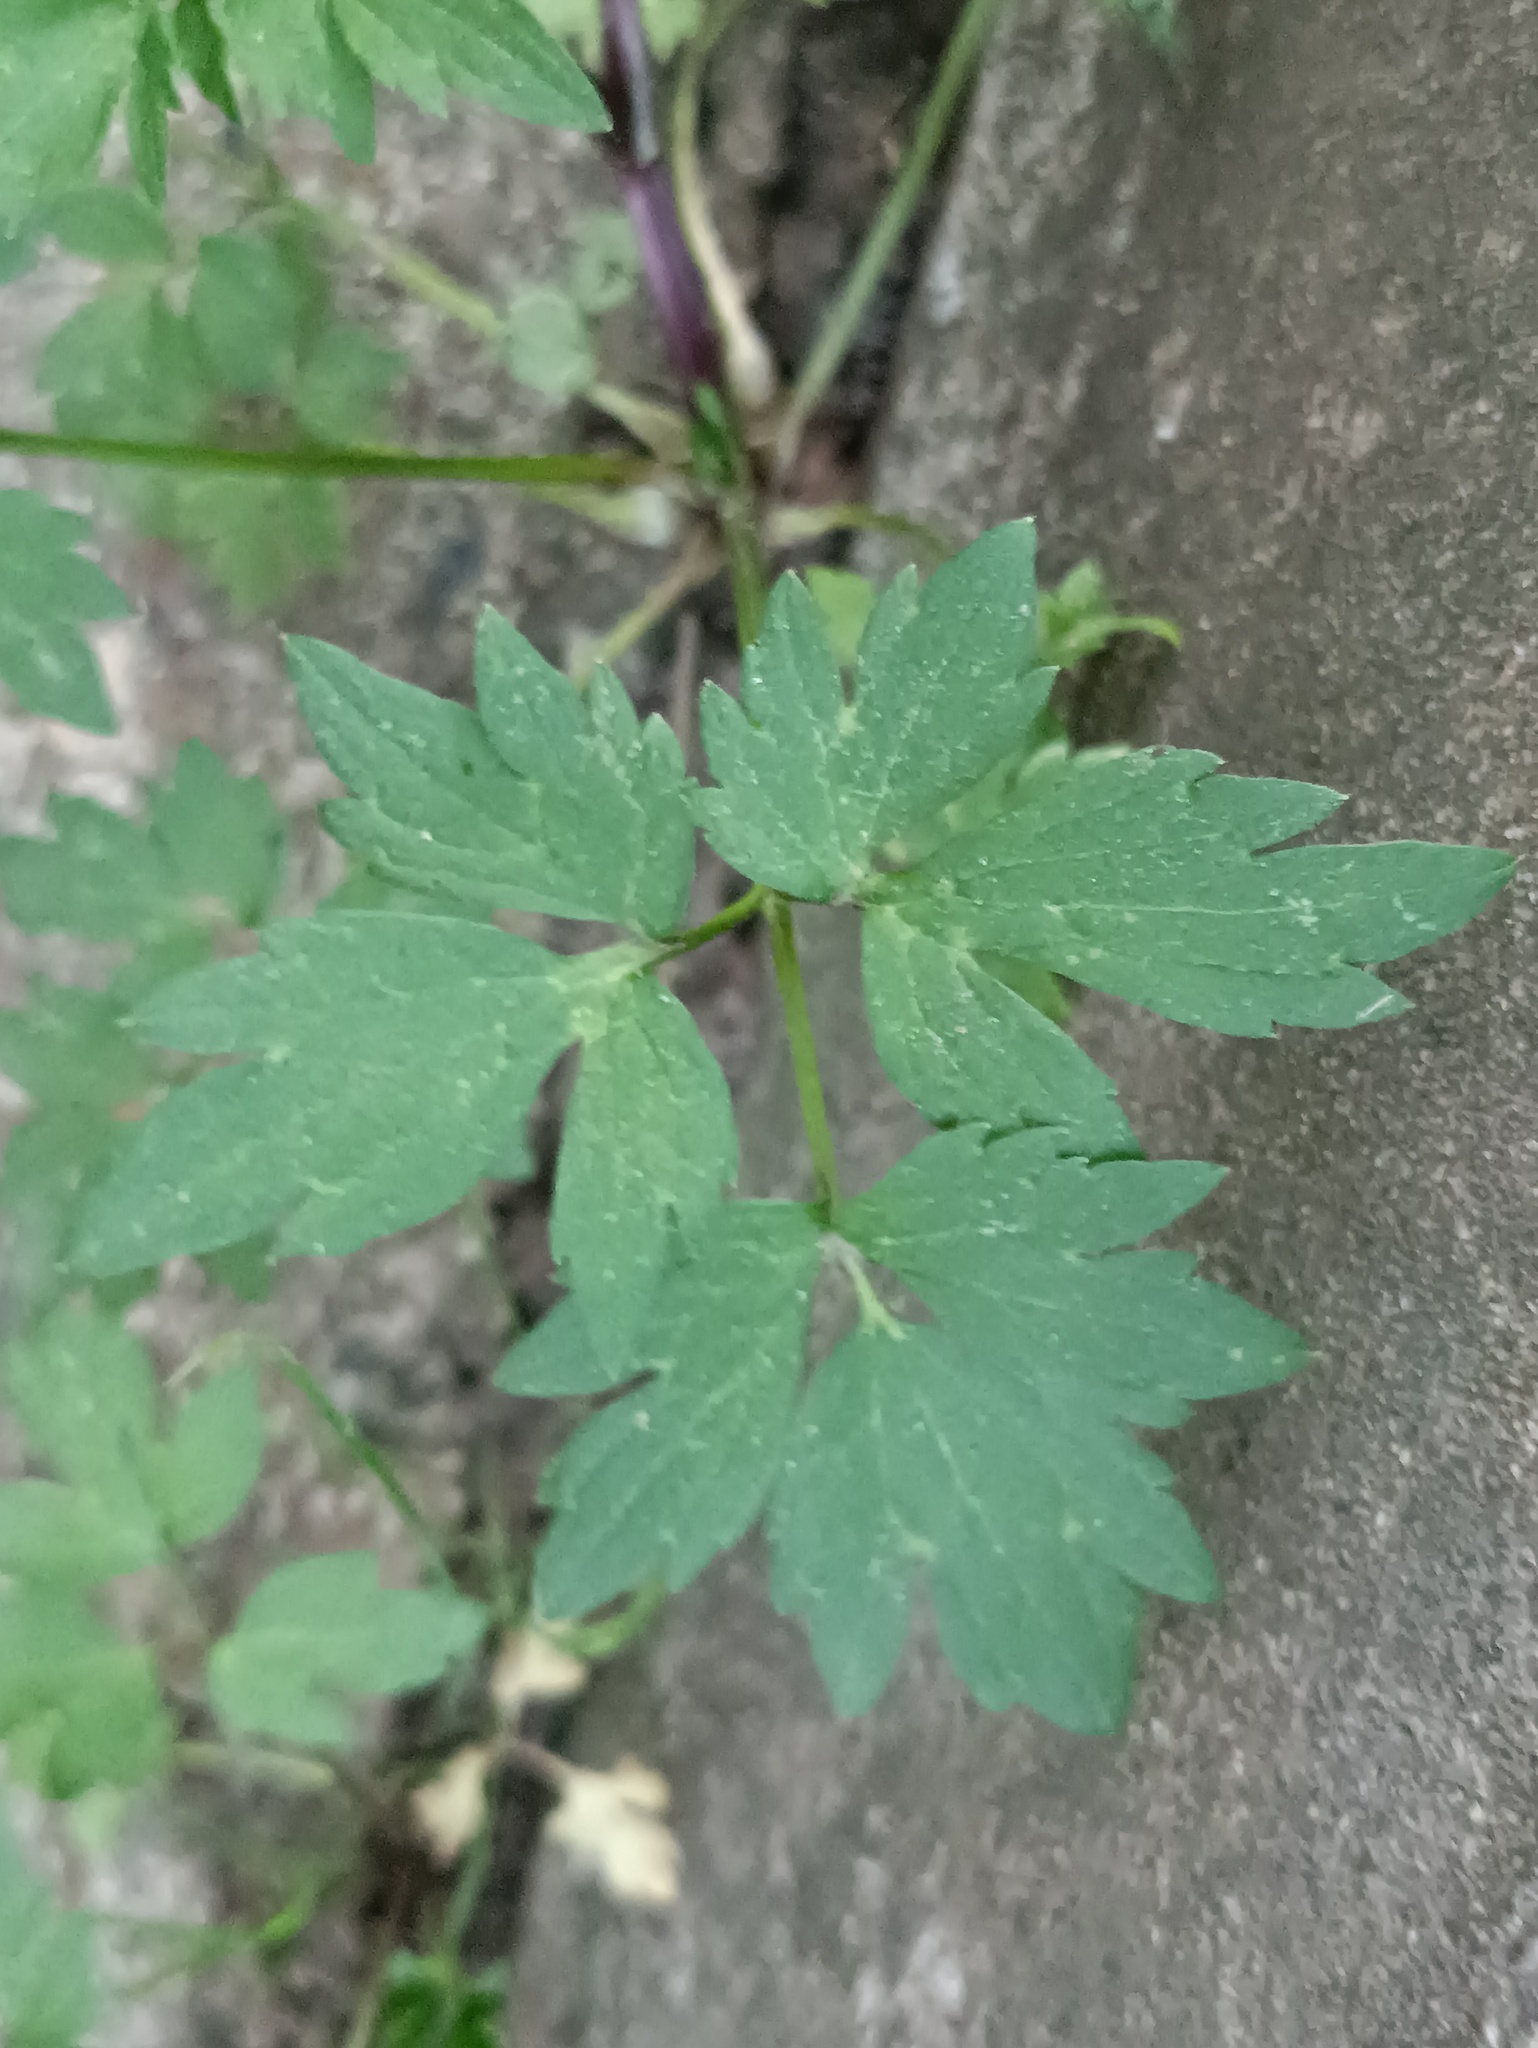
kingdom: Plantae
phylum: Tracheophyta
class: Magnoliopsida
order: Ranunculales
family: Ranunculaceae
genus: Ranunculus
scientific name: Ranunculus repens
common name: Creeping buttercup
